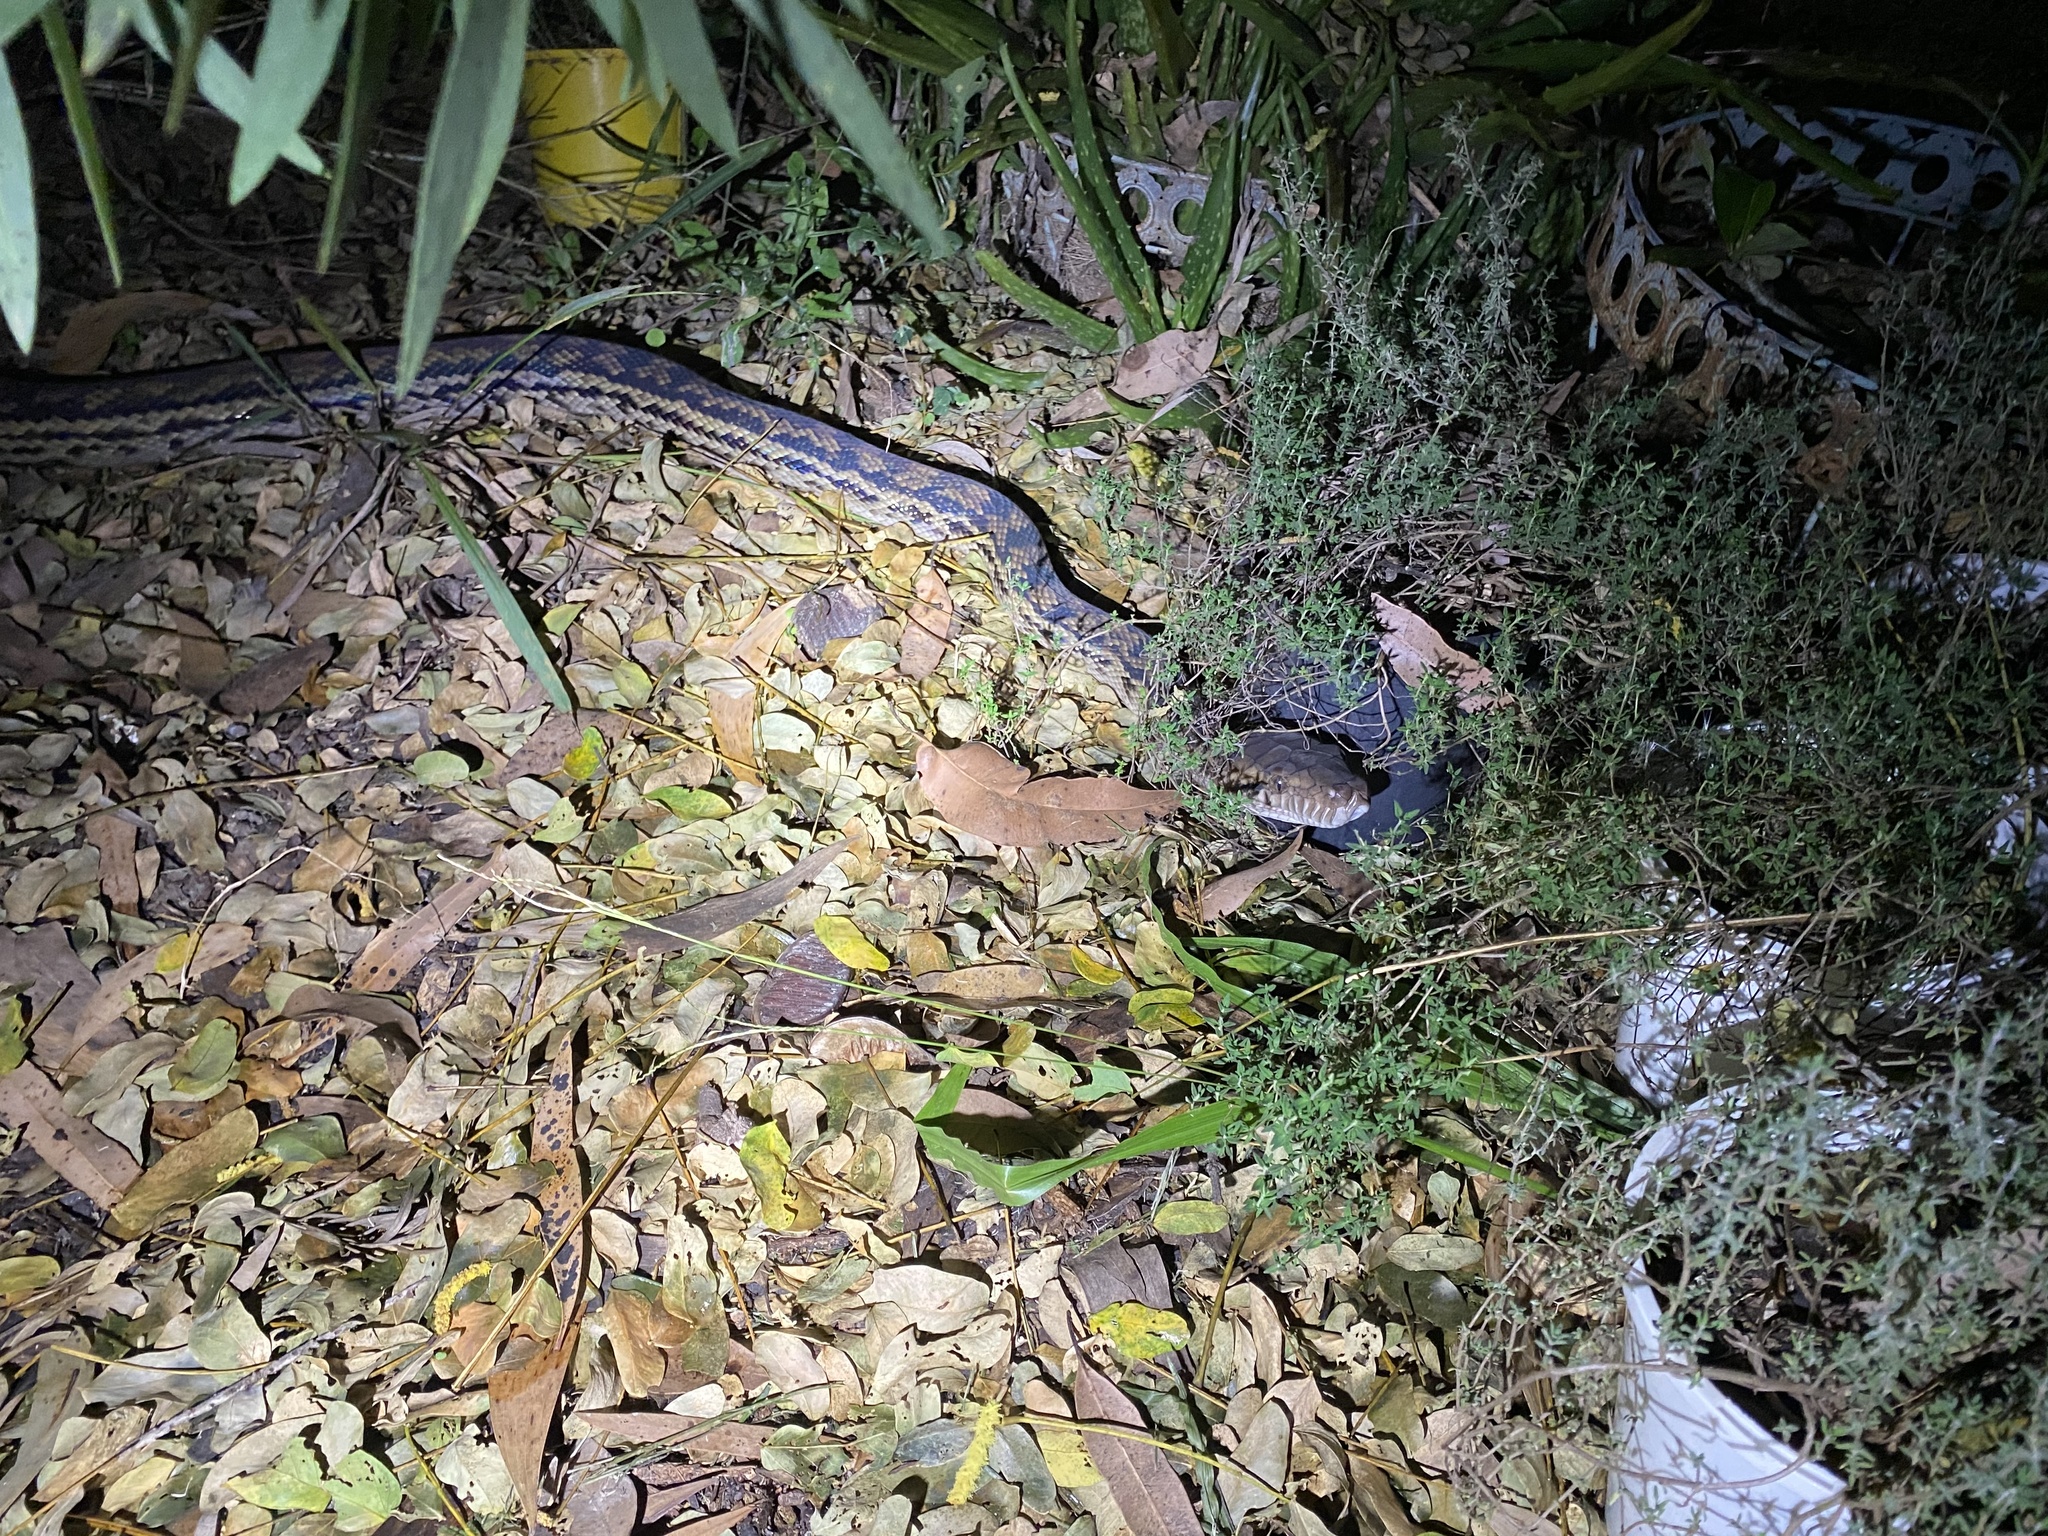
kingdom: Animalia
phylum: Chordata
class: Squamata
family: Pythonidae
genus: Simalia
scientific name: Simalia kinghorni
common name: Scrub python
